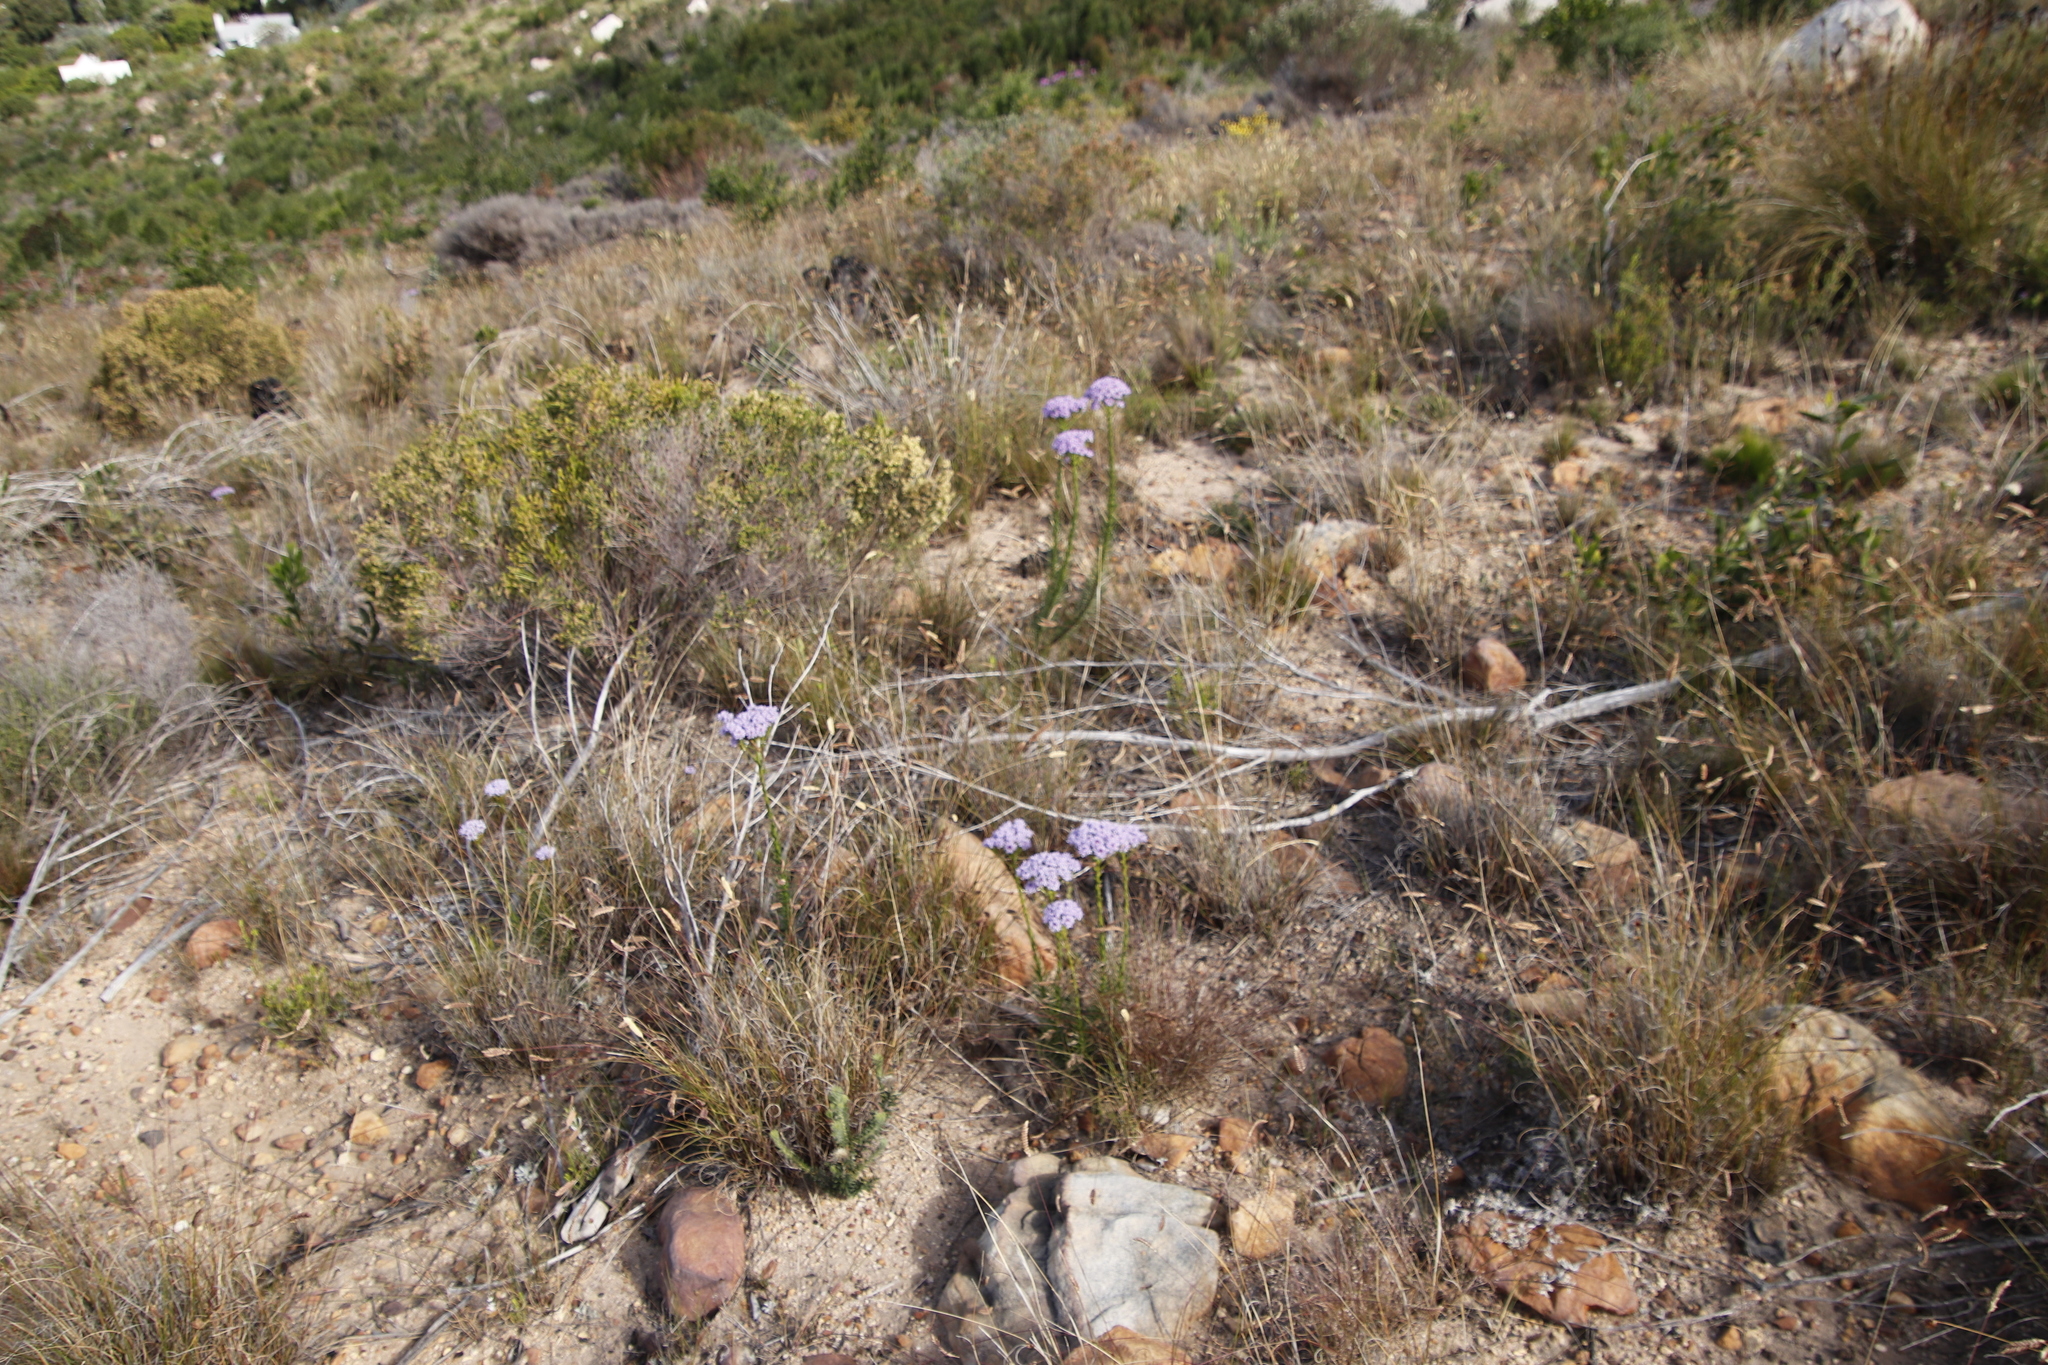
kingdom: Plantae
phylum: Tracheophyta
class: Magnoliopsida
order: Lamiales
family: Scrophulariaceae
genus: Pseudoselago
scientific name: Pseudoselago spuria
